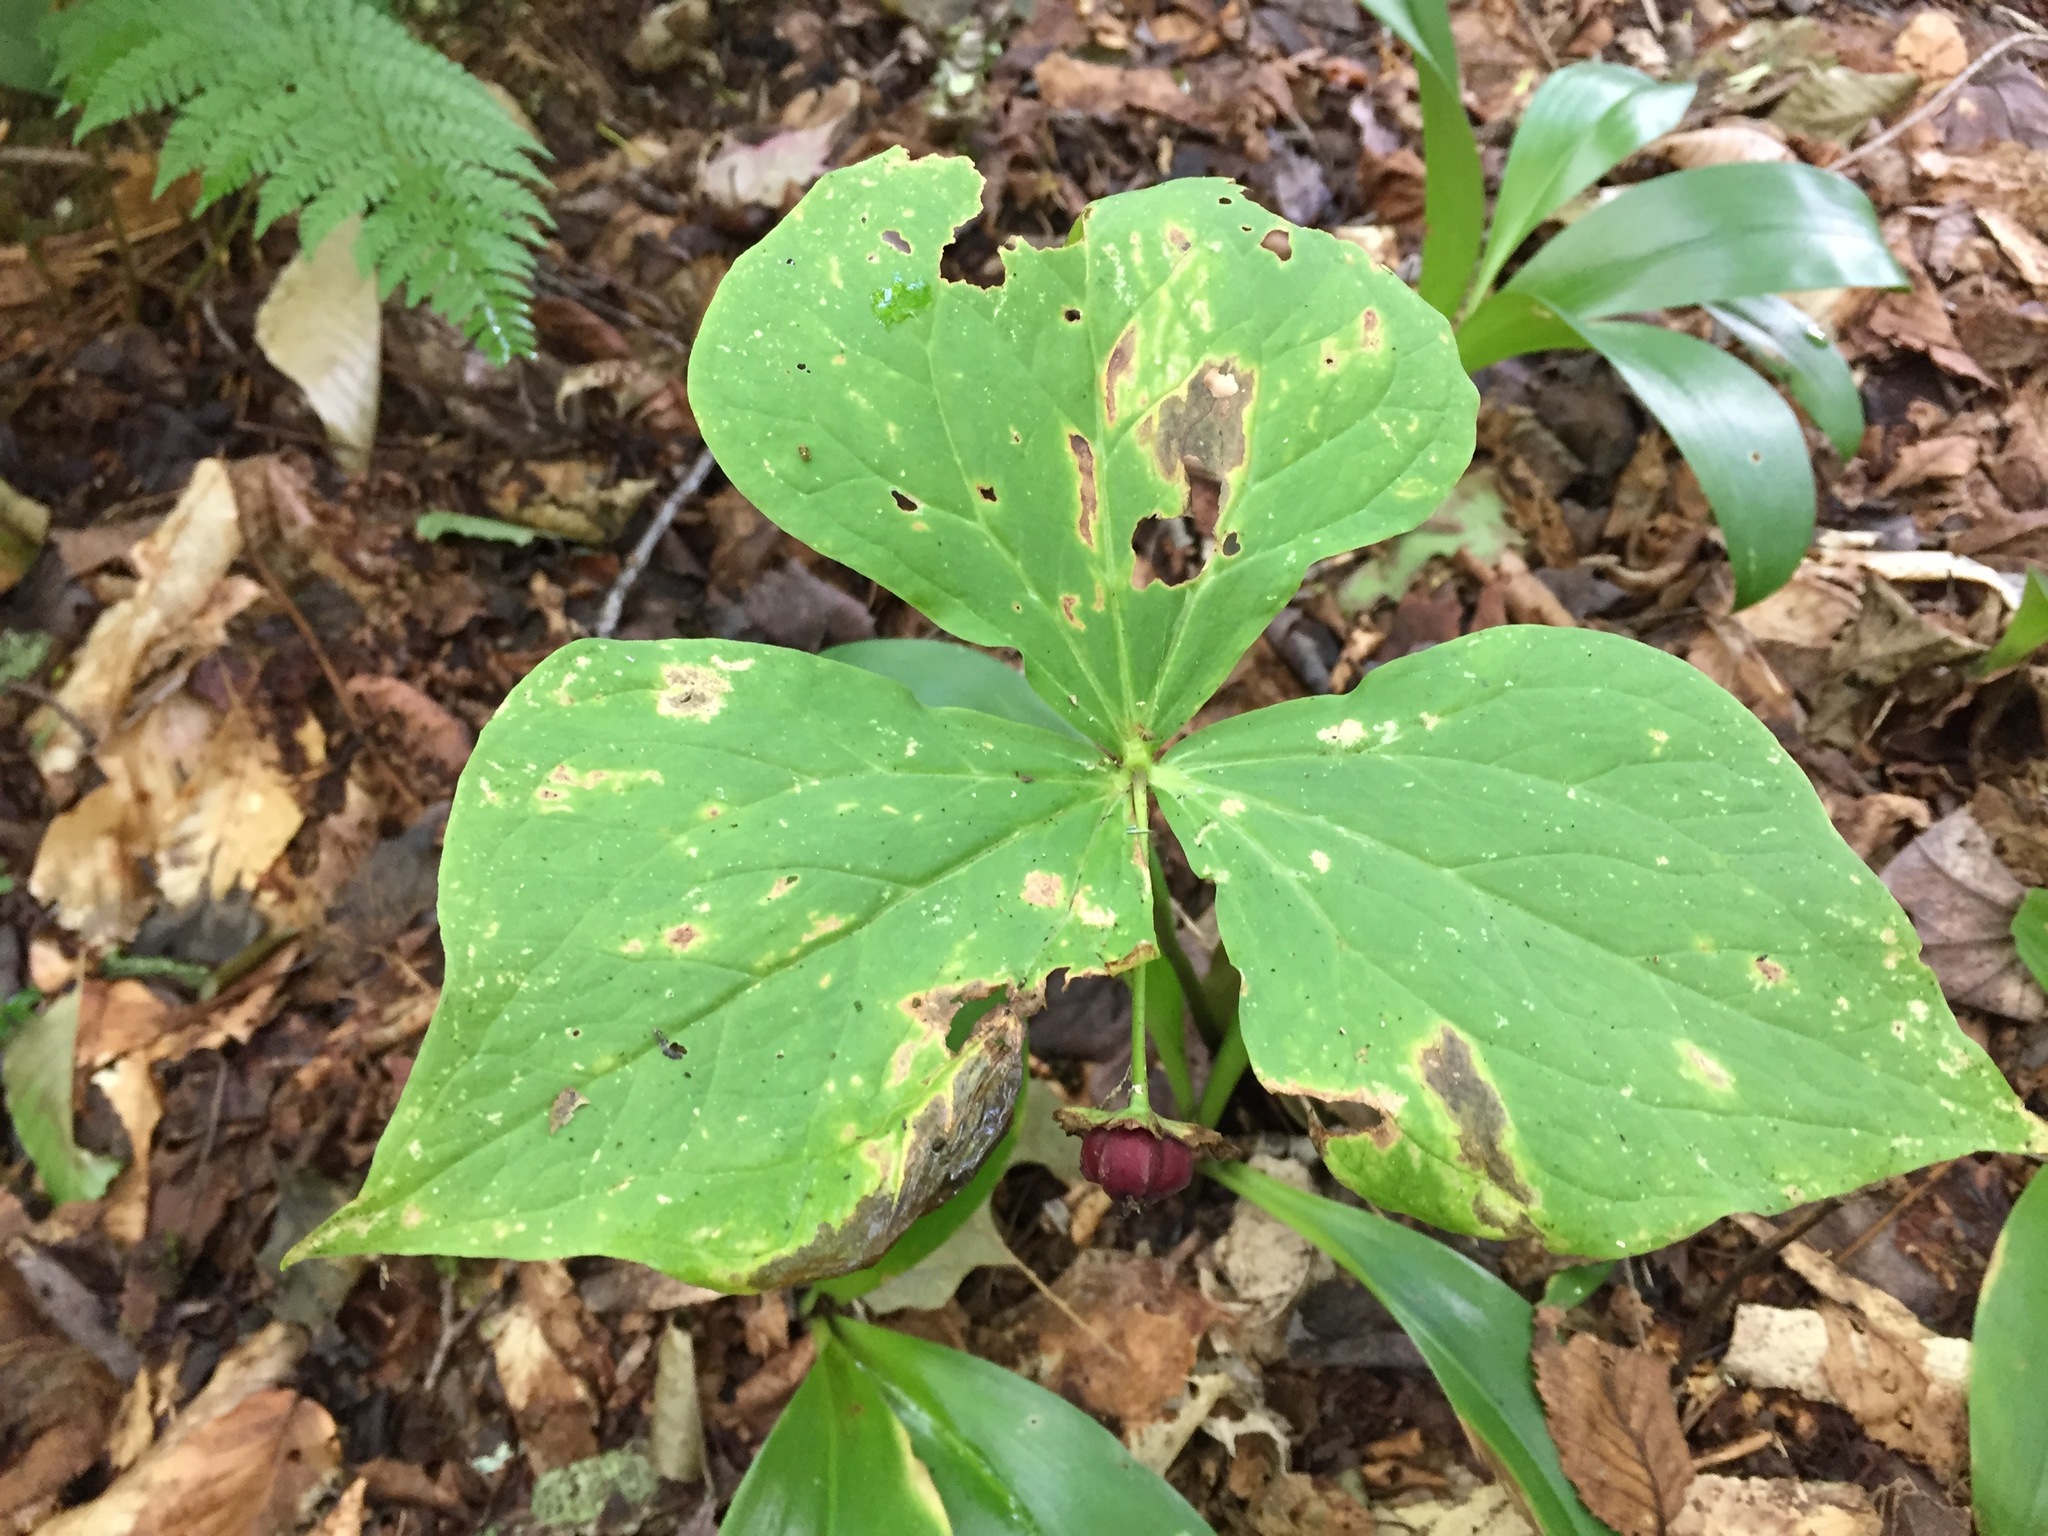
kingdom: Plantae
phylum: Tracheophyta
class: Liliopsida
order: Liliales
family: Melanthiaceae
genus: Trillium
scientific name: Trillium erectum
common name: Purple trillium
